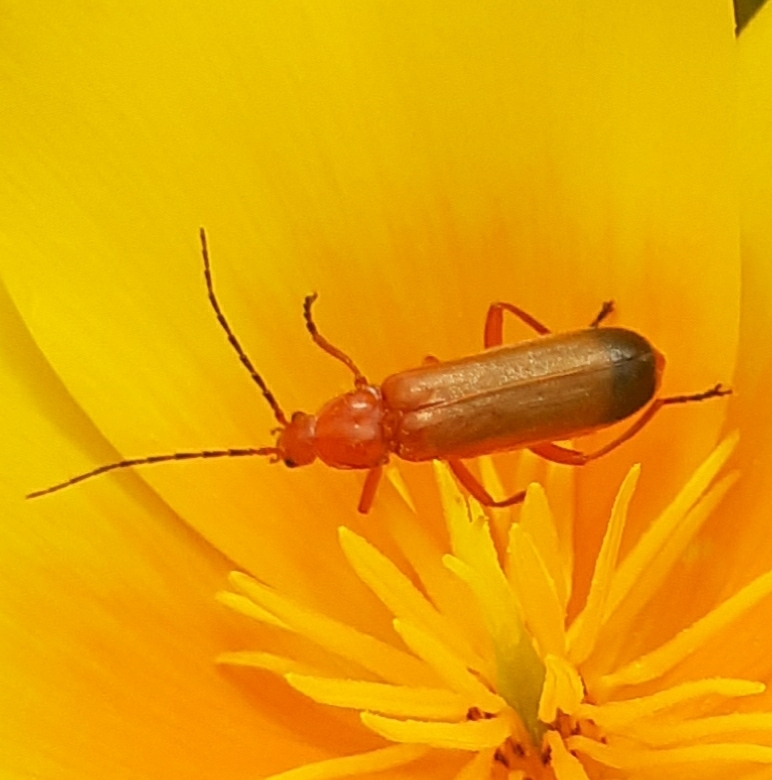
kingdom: Animalia
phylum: Arthropoda
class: Insecta
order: Coleoptera
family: Cantharidae
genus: Rhagonycha
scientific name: Rhagonycha fulva
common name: Common red soldier beetle
